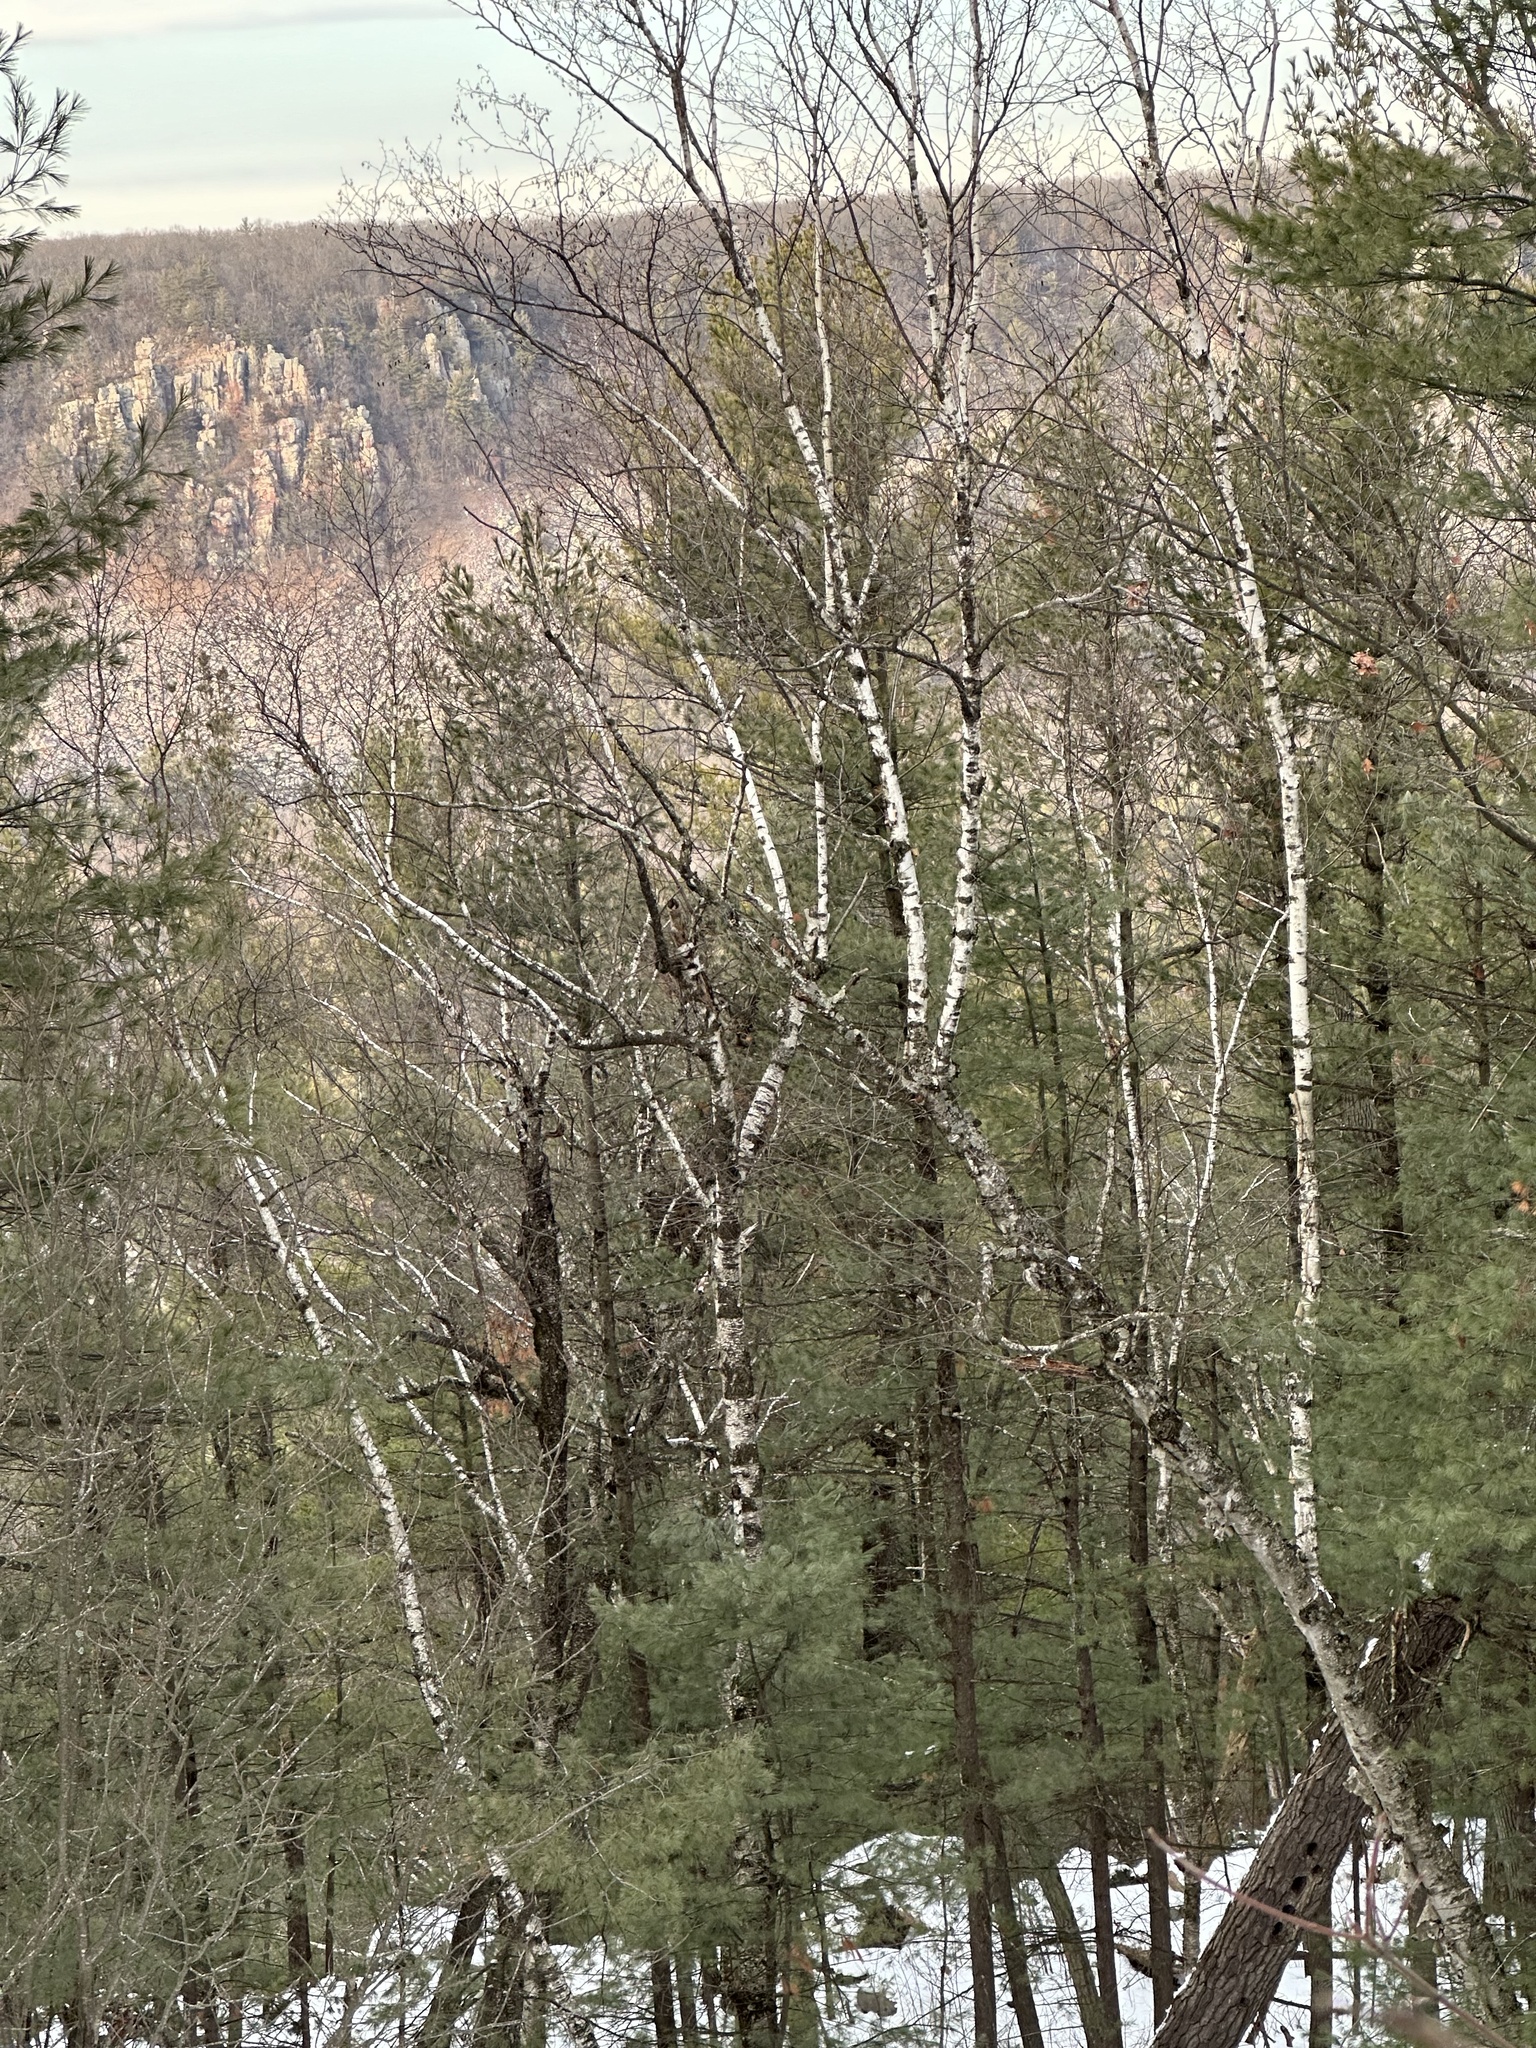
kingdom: Plantae
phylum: Tracheophyta
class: Magnoliopsida
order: Fagales
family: Betulaceae
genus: Betula
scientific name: Betula papyrifera
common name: Paper birch
